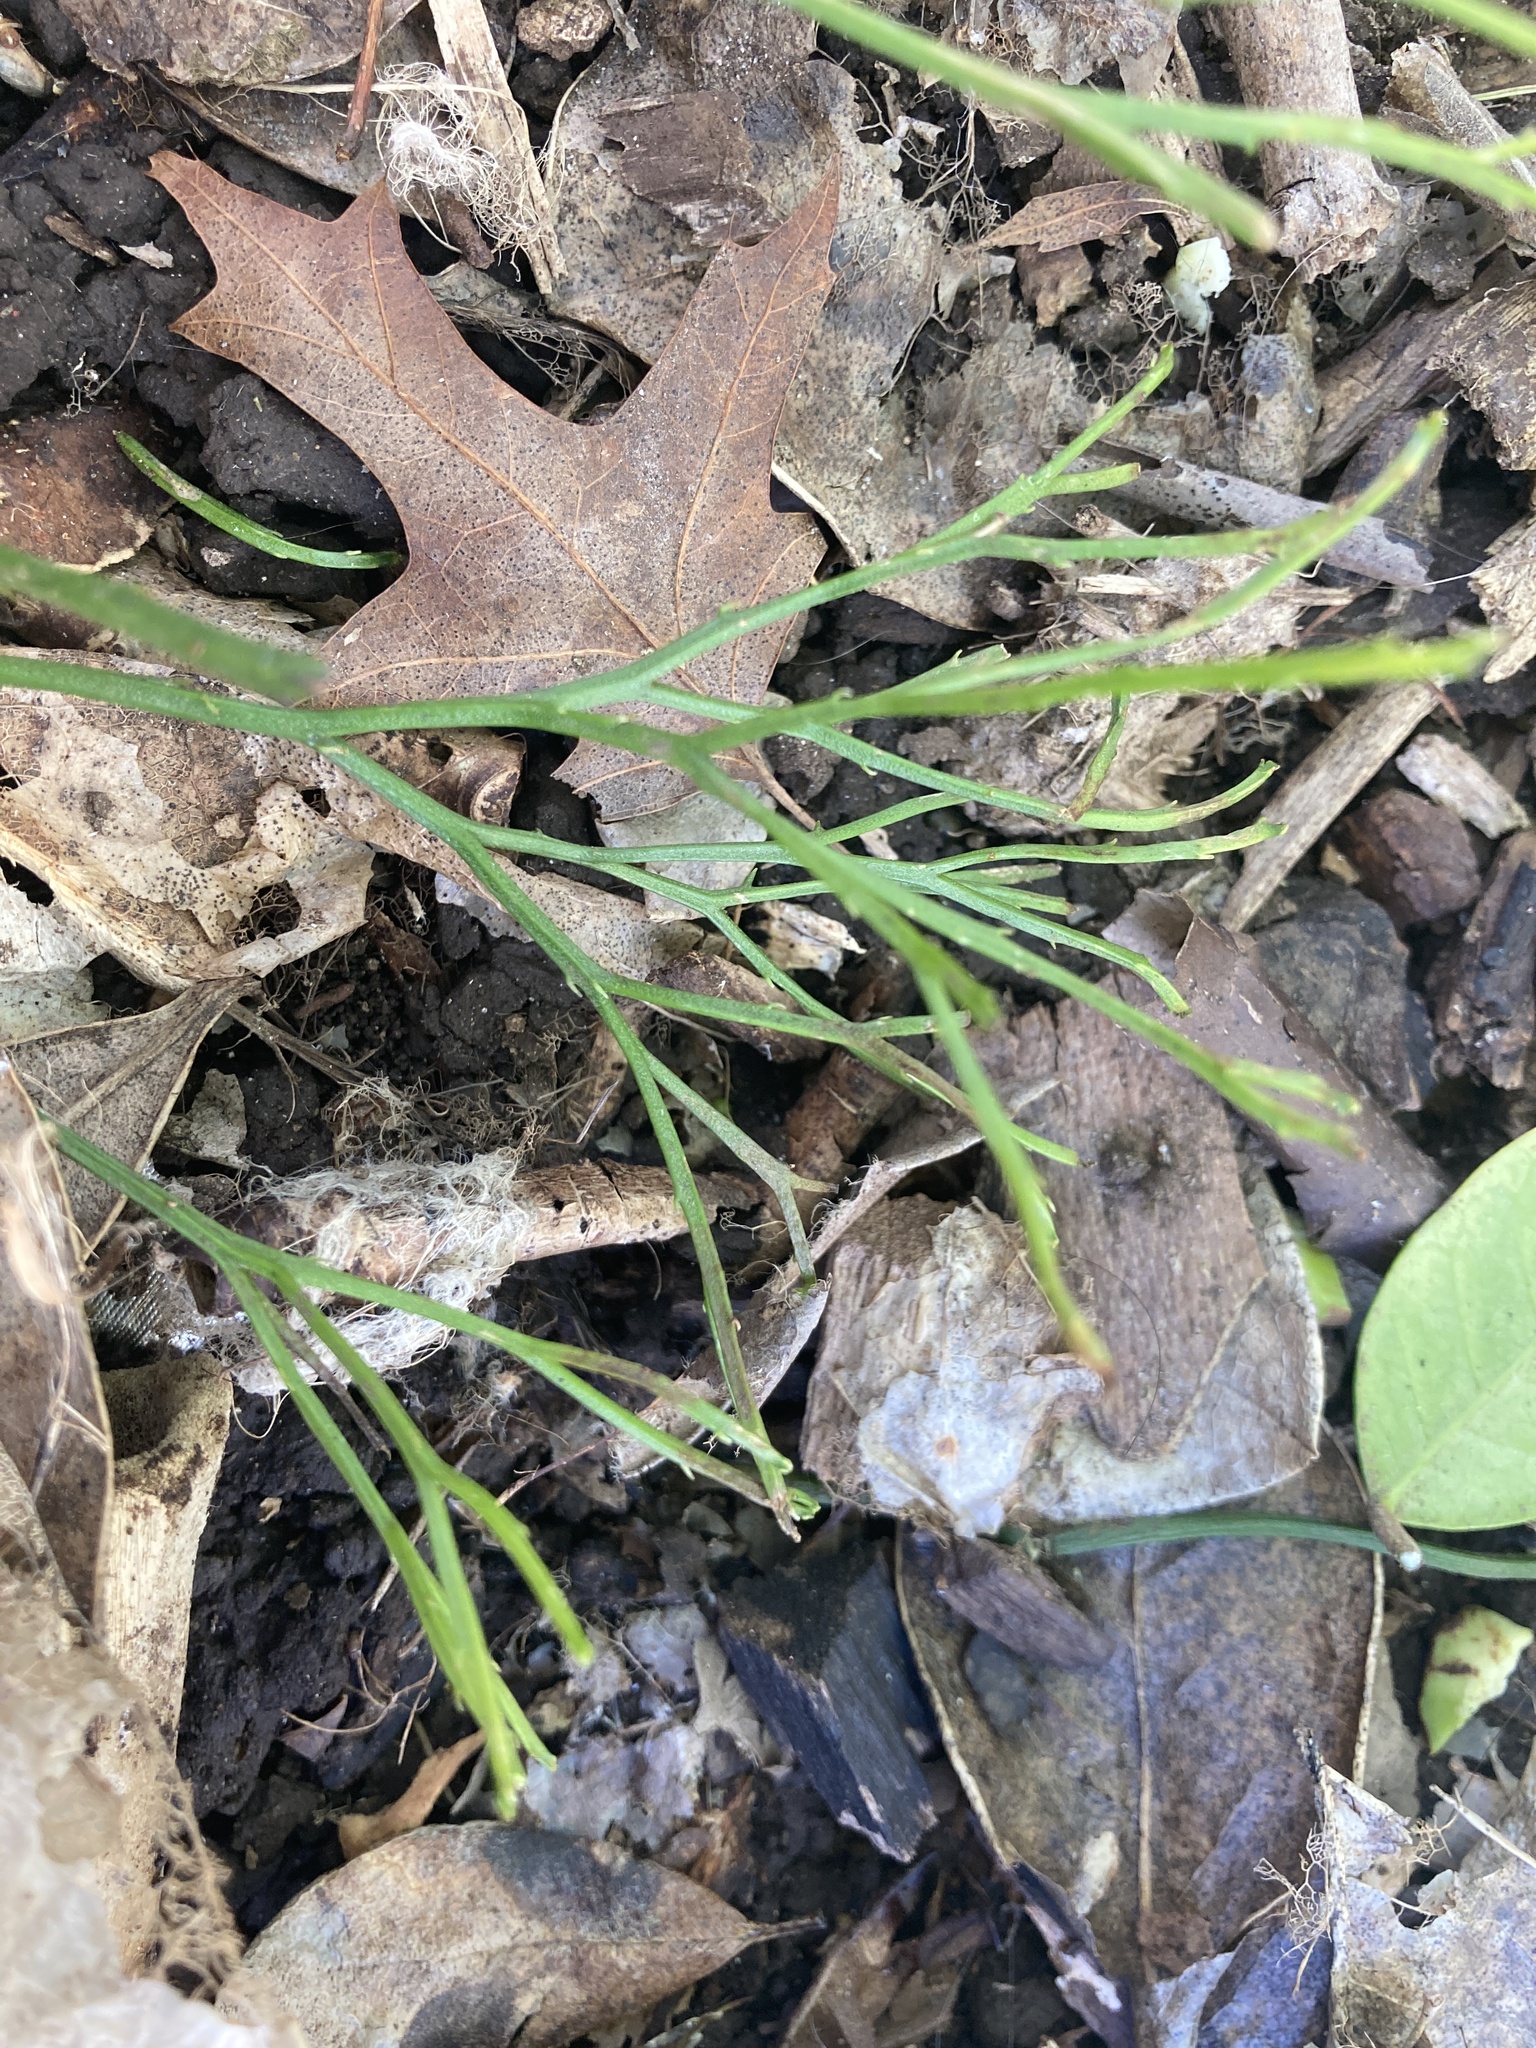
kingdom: Plantae
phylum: Tracheophyta
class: Polypodiopsida
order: Psilotales
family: Psilotaceae
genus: Psilotum
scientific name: Psilotum nudum
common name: Skeleton fork fern
